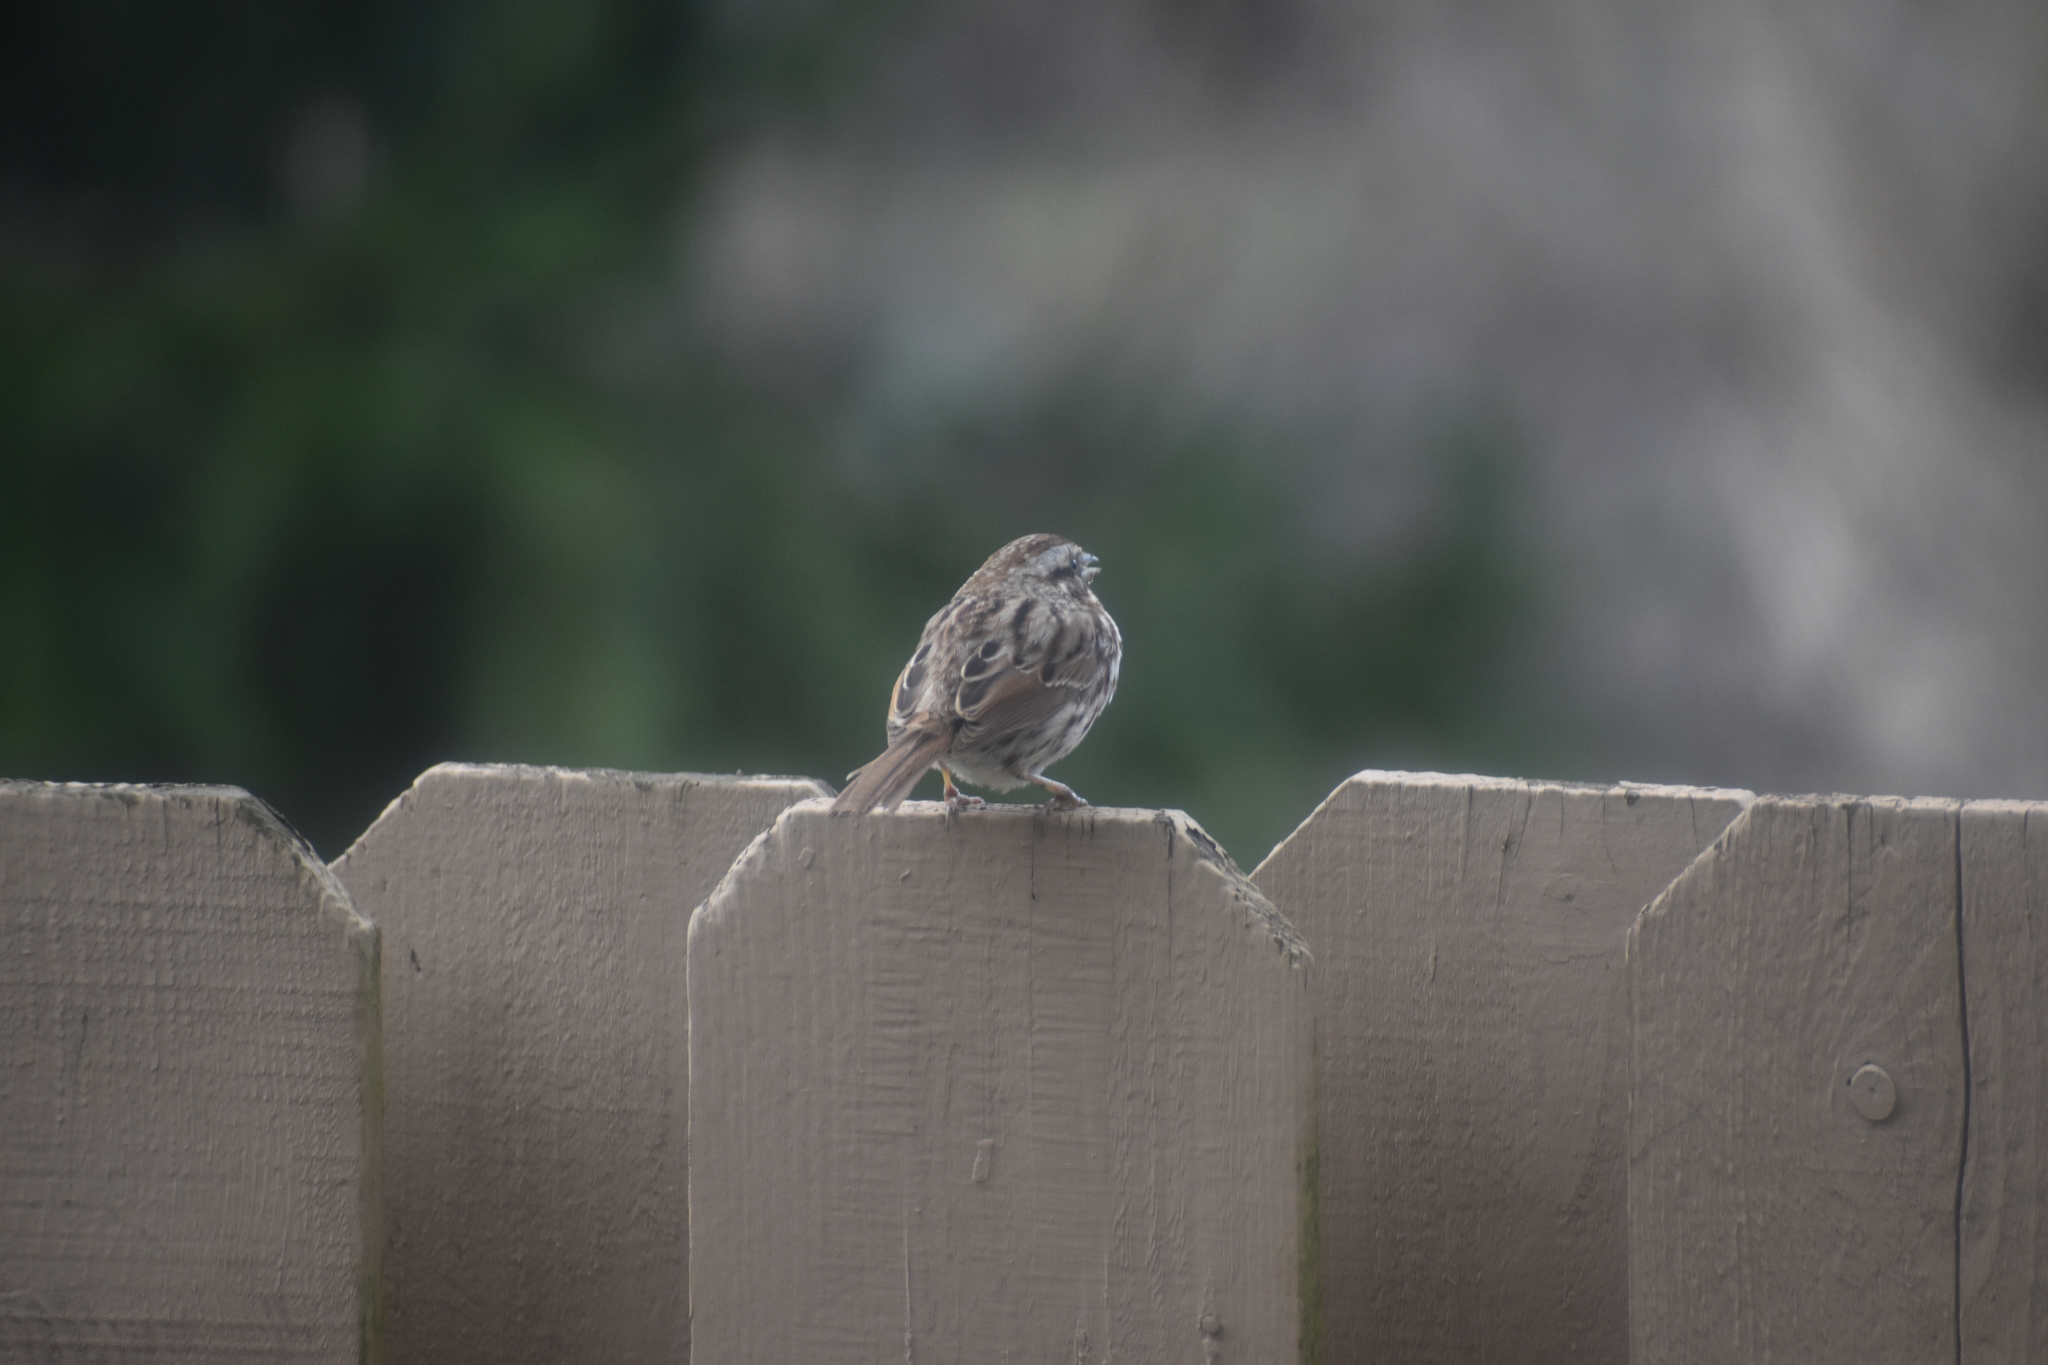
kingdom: Animalia
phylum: Chordata
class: Aves
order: Passeriformes
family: Passerellidae
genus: Melospiza
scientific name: Melospiza melodia
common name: Song sparrow
